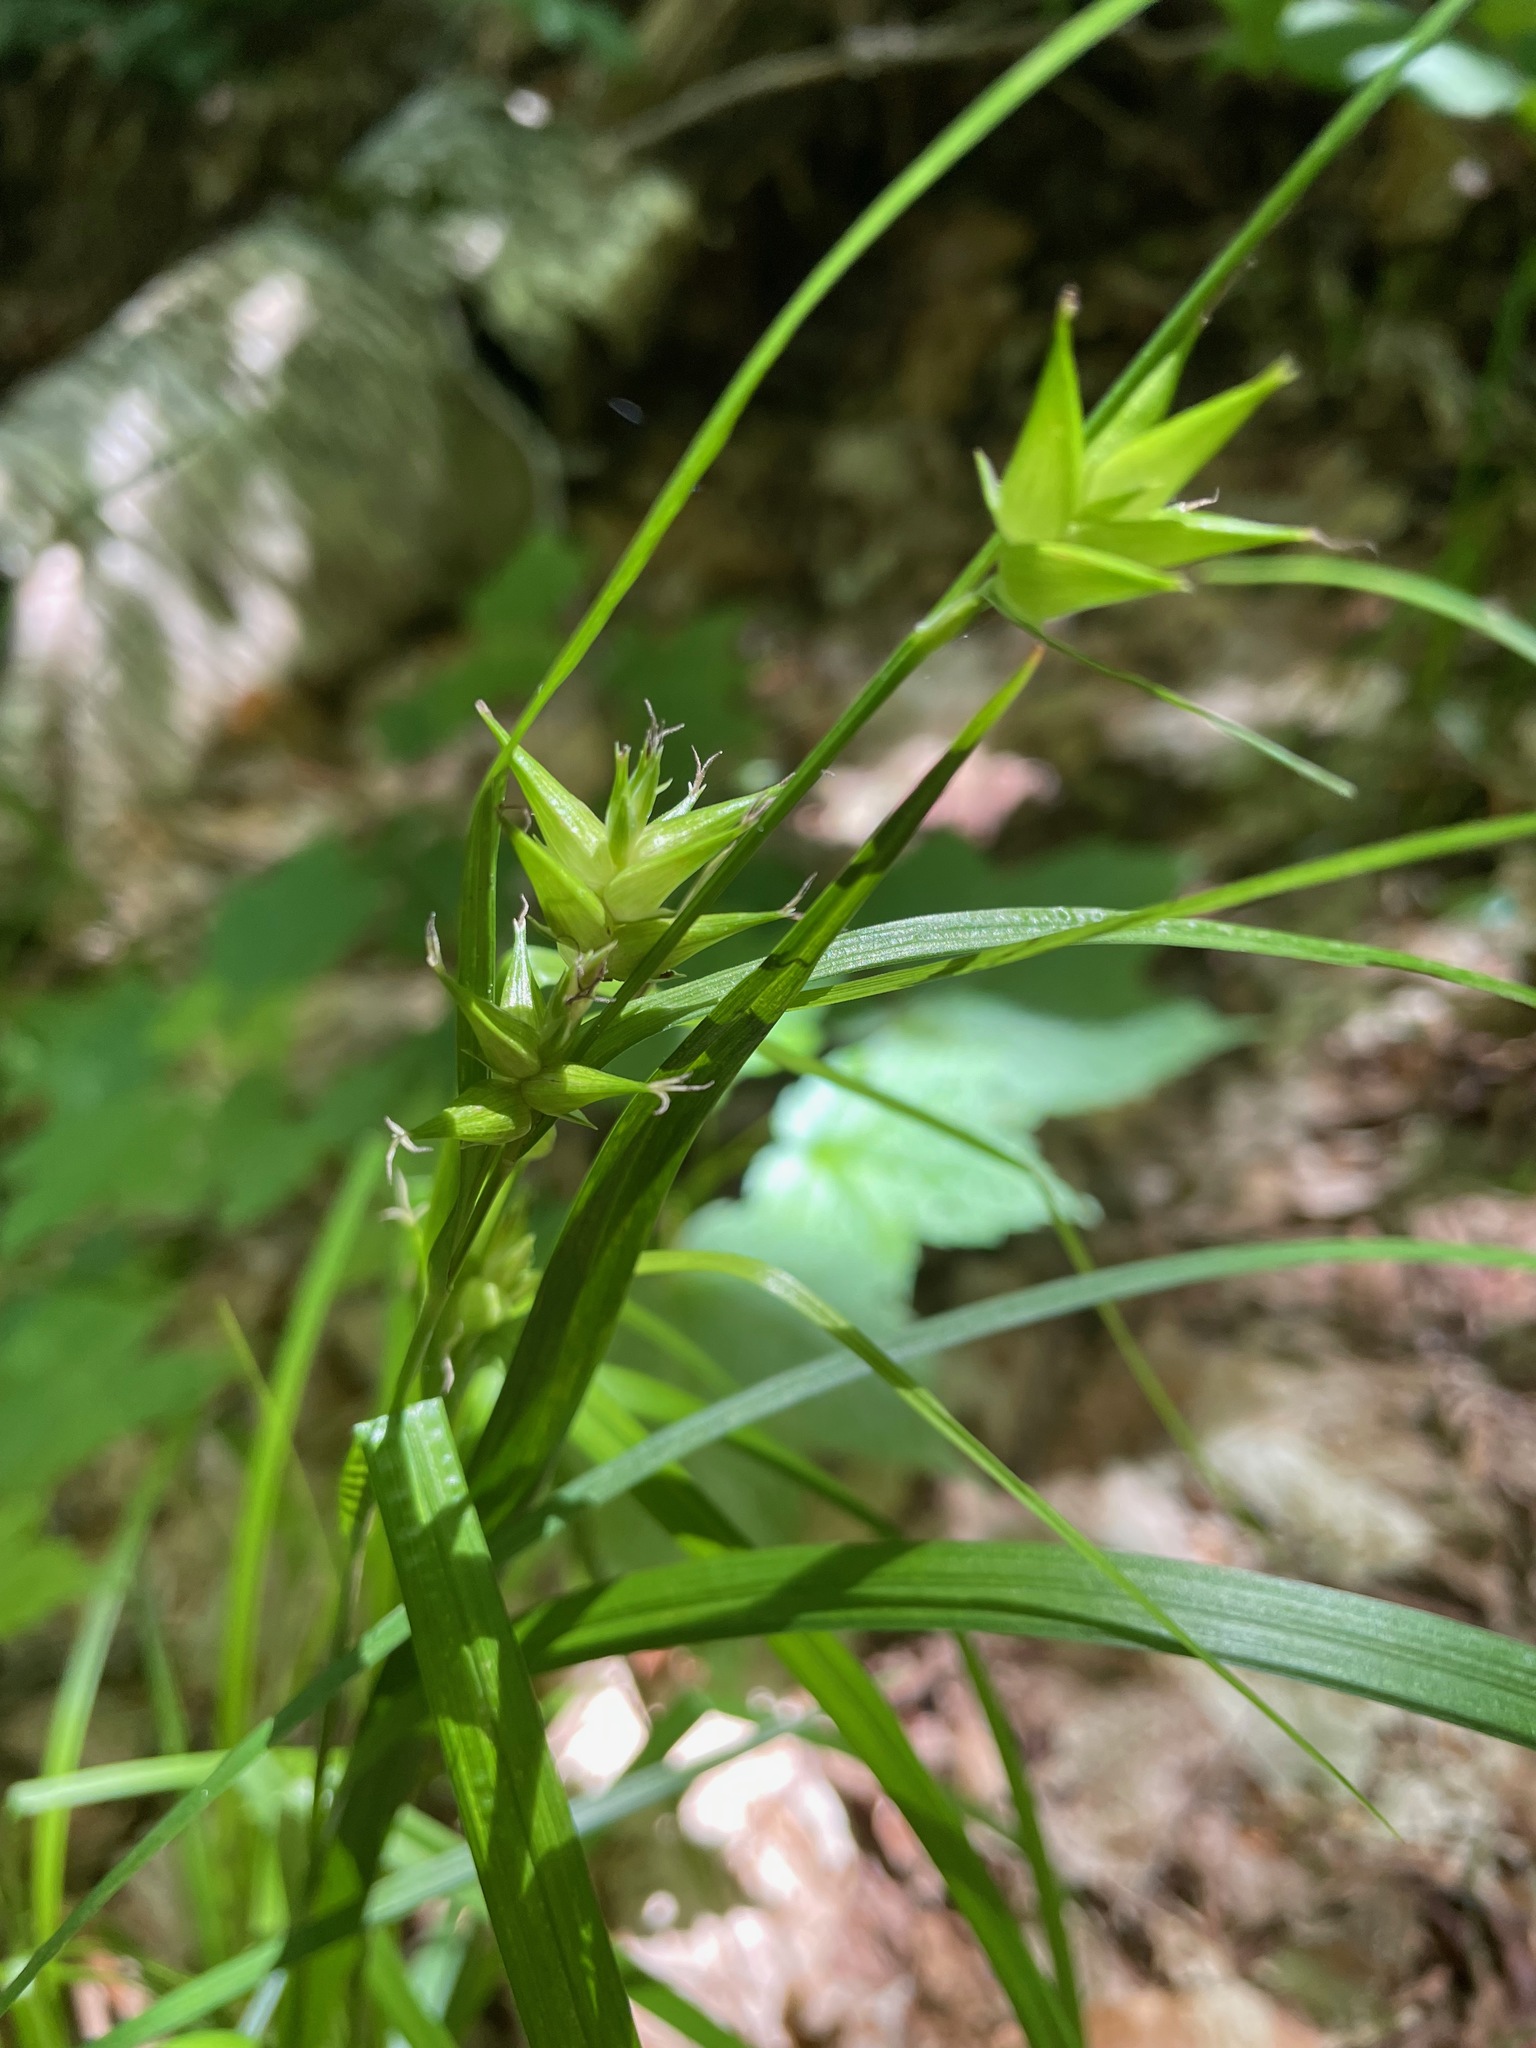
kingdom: Plantae
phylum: Tracheophyta
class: Liliopsida
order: Poales
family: Cyperaceae
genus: Carex
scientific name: Carex intumescens
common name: Greater bladder sedge
